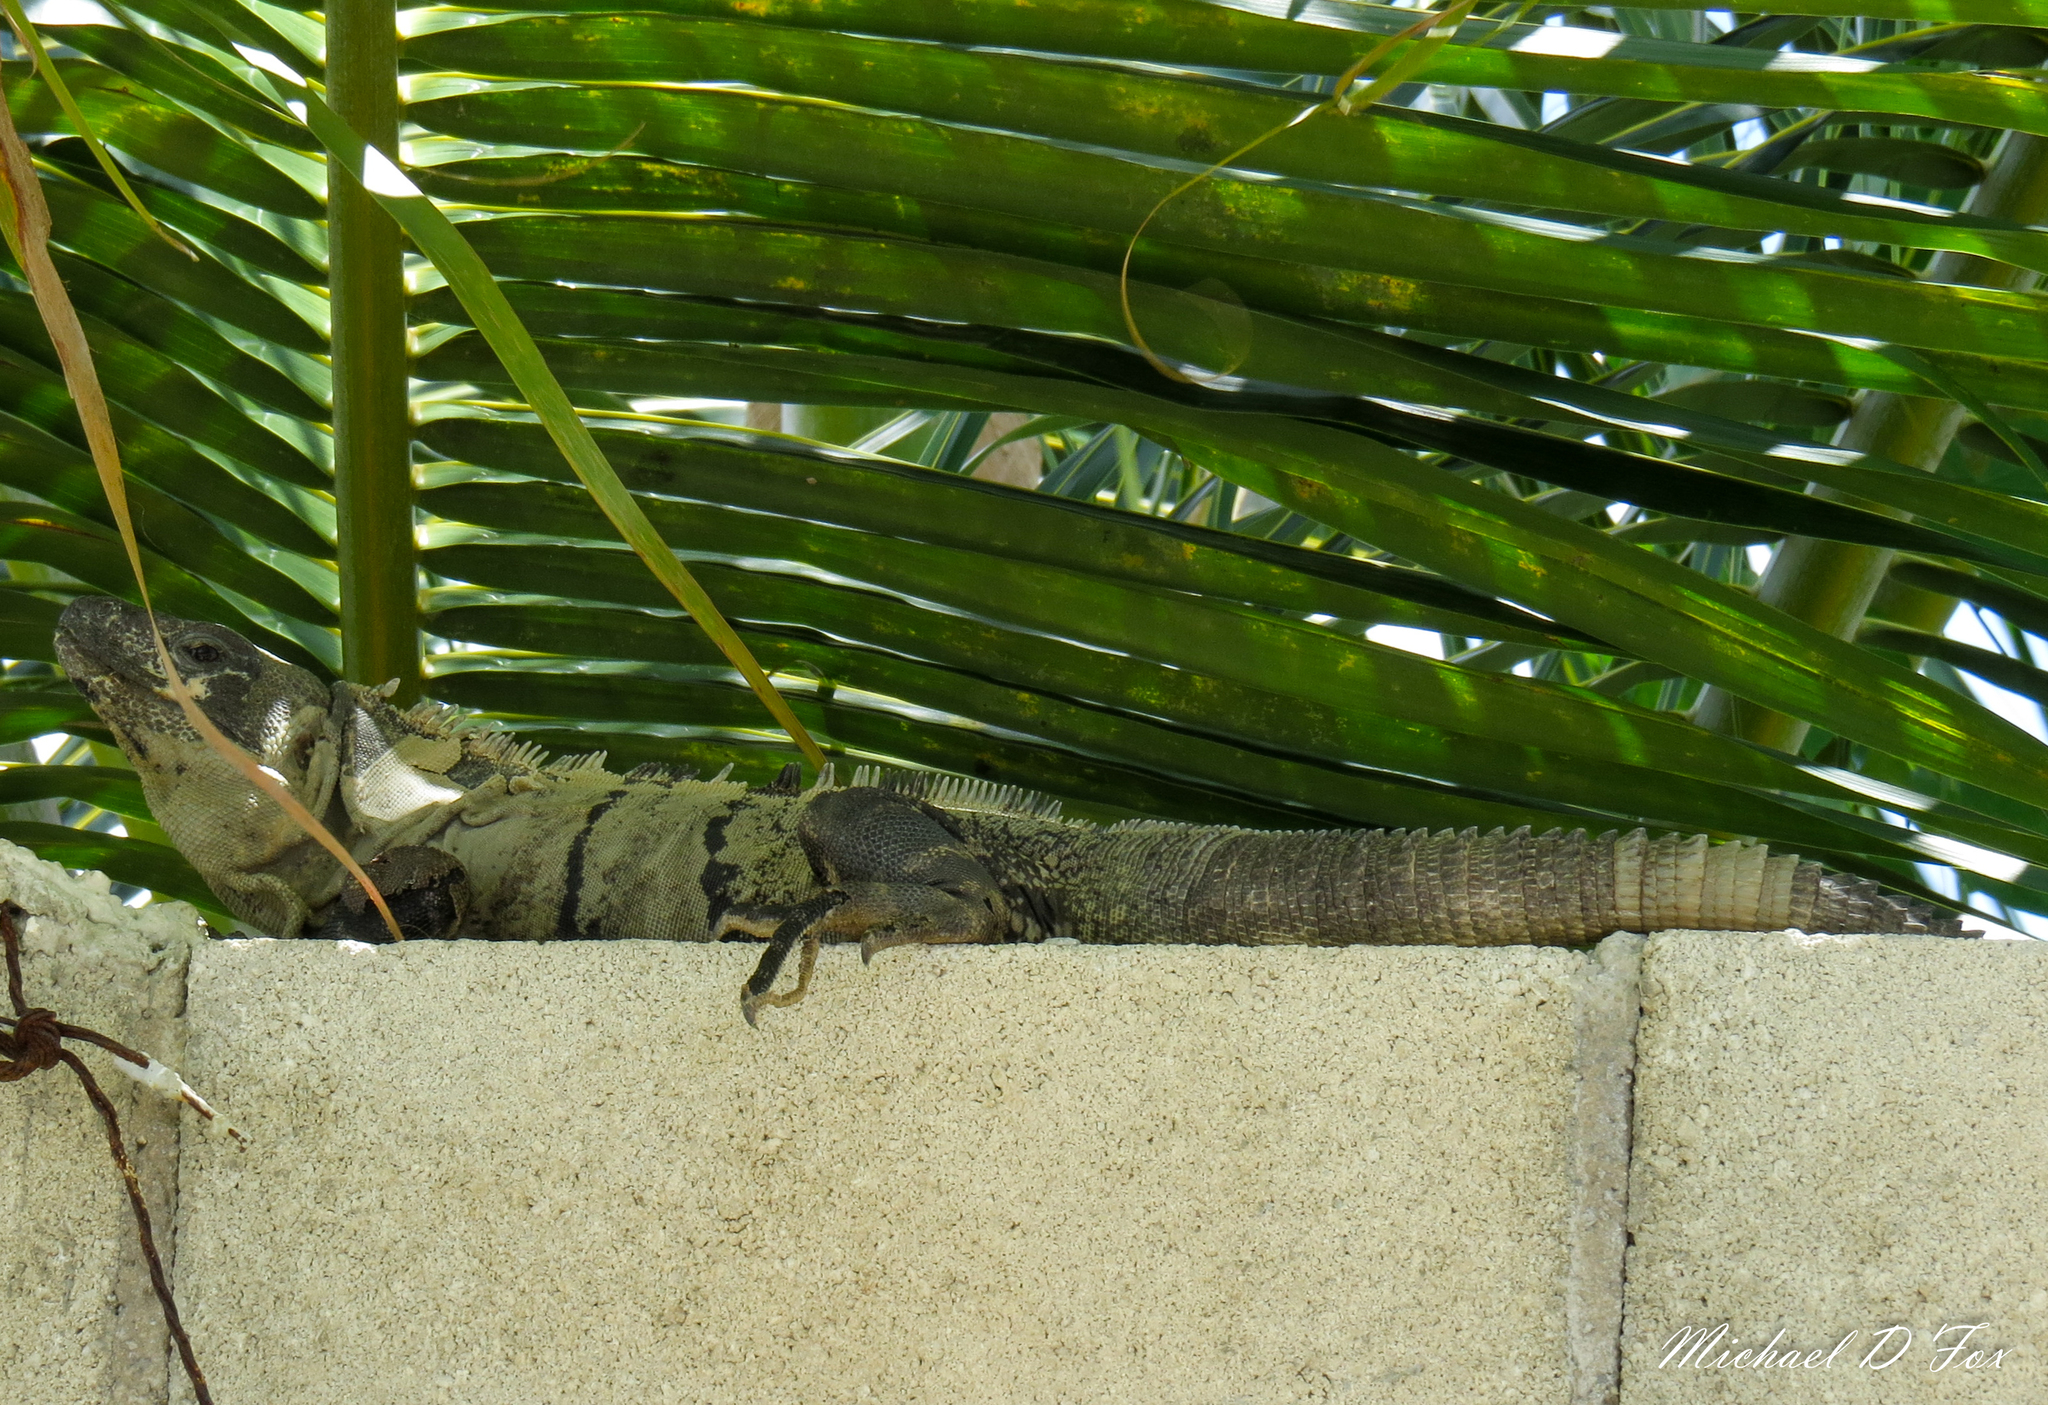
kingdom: Animalia
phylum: Chordata
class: Squamata
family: Iguanidae
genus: Ctenosaura
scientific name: Ctenosaura similis
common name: Black spiny-tailed iguana
